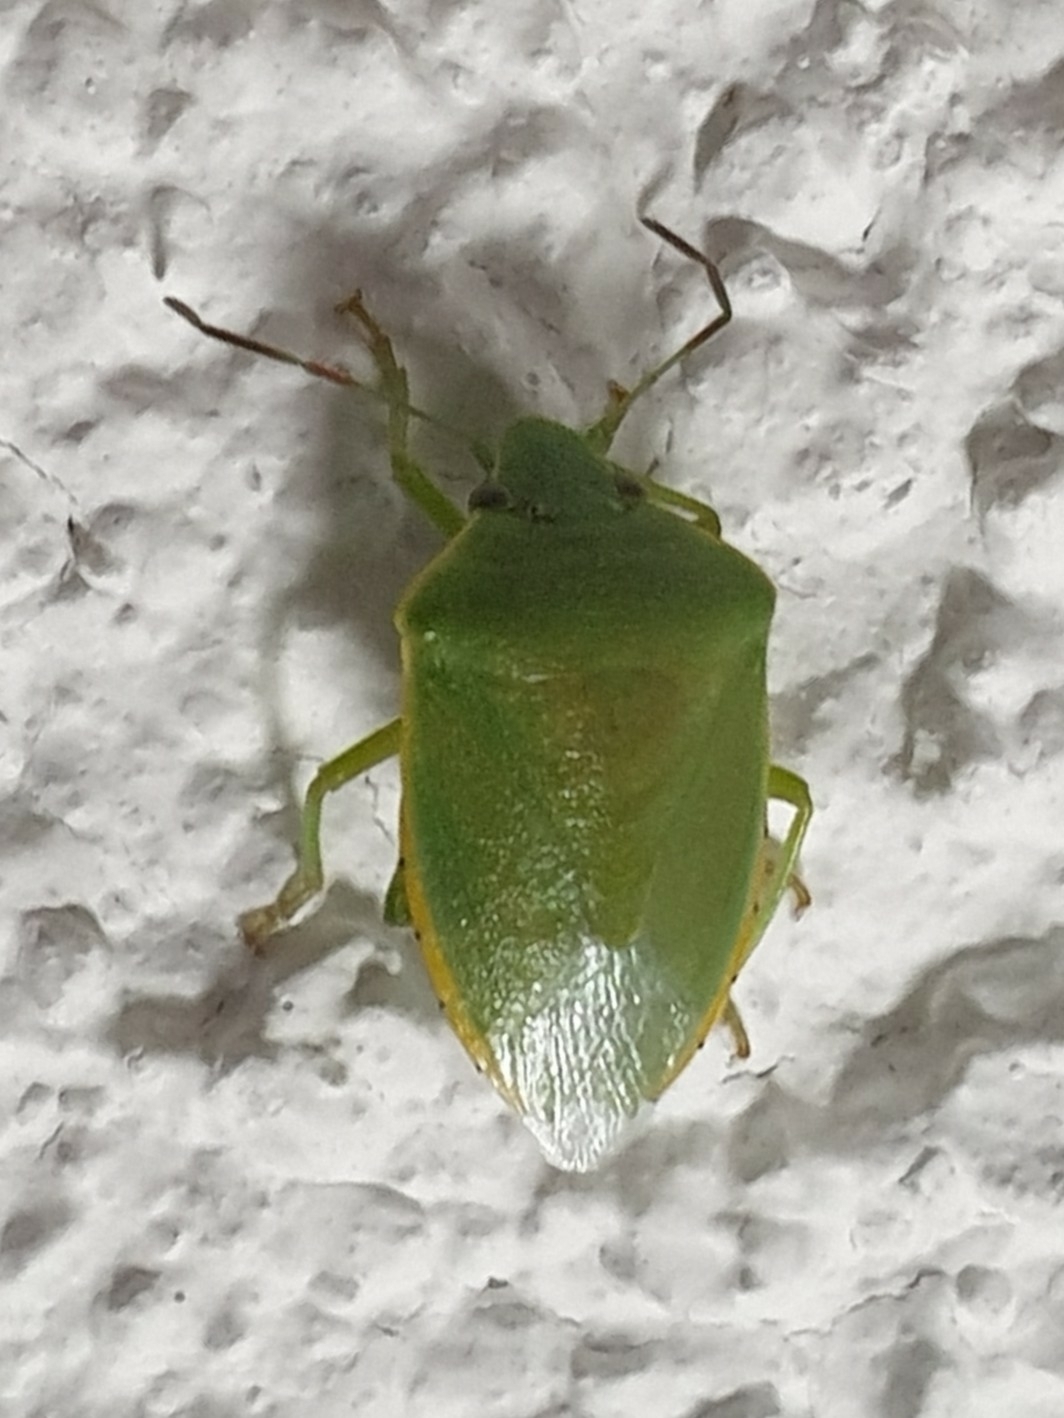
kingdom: Animalia
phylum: Arthropoda
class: Insecta
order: Hemiptera
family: Pentatomidae
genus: Acrosternum
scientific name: Acrosternum heegeri
